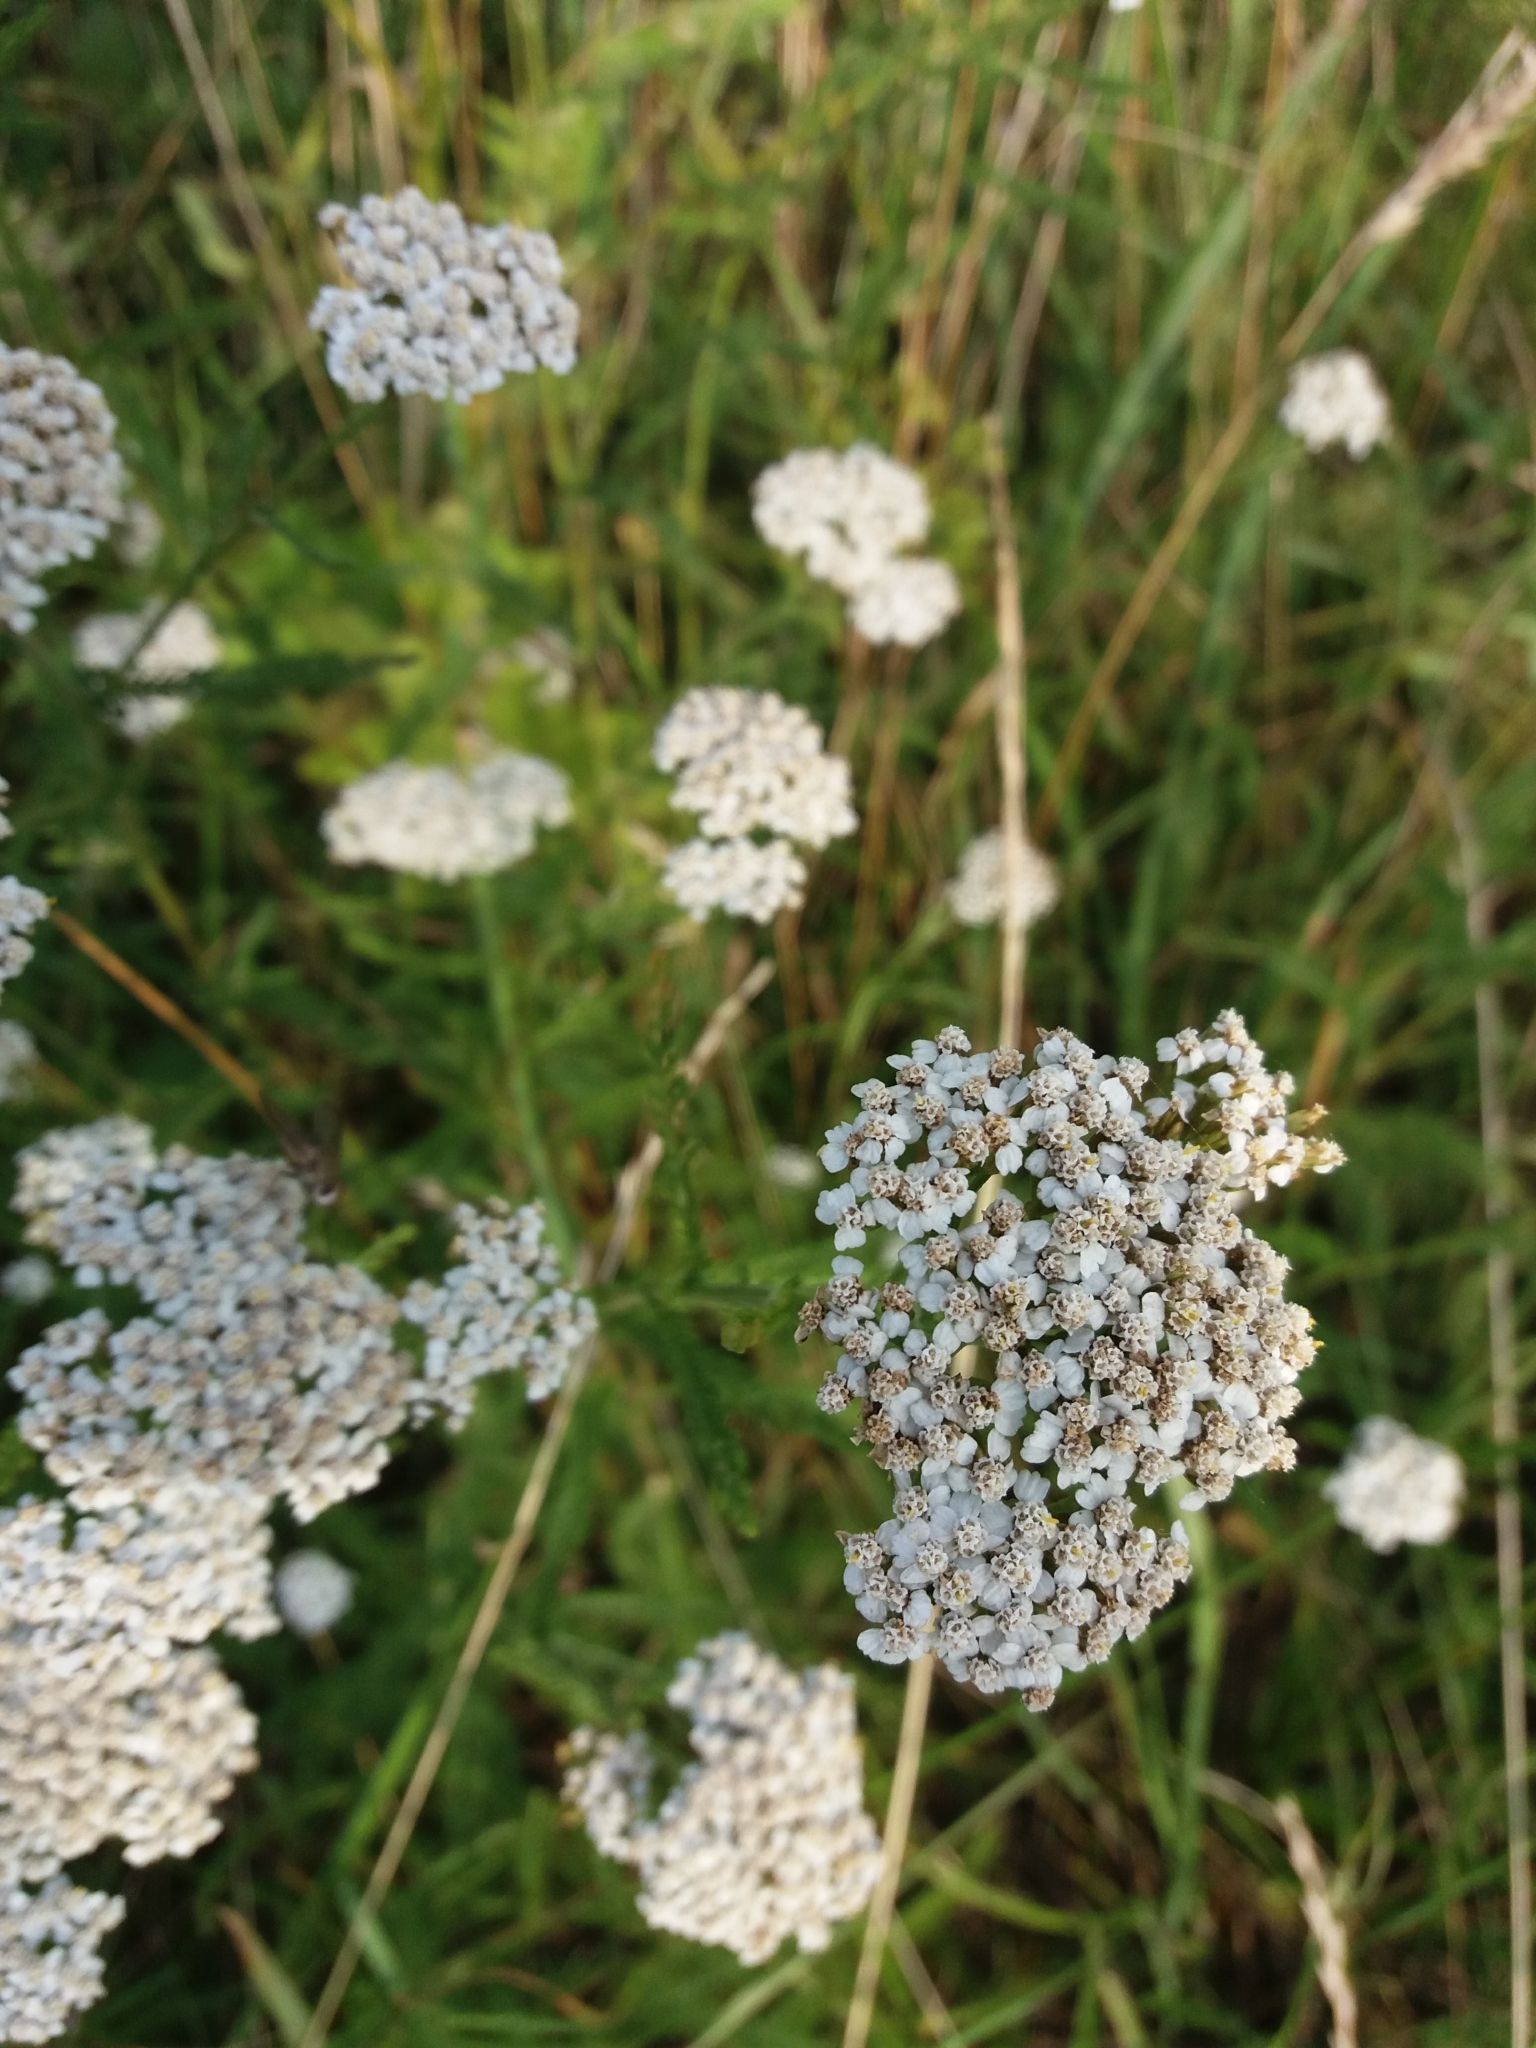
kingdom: Plantae
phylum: Tracheophyta
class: Magnoliopsida
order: Asterales
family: Asteraceae
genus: Achillea
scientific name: Achillea millefolium
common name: Yarrow
